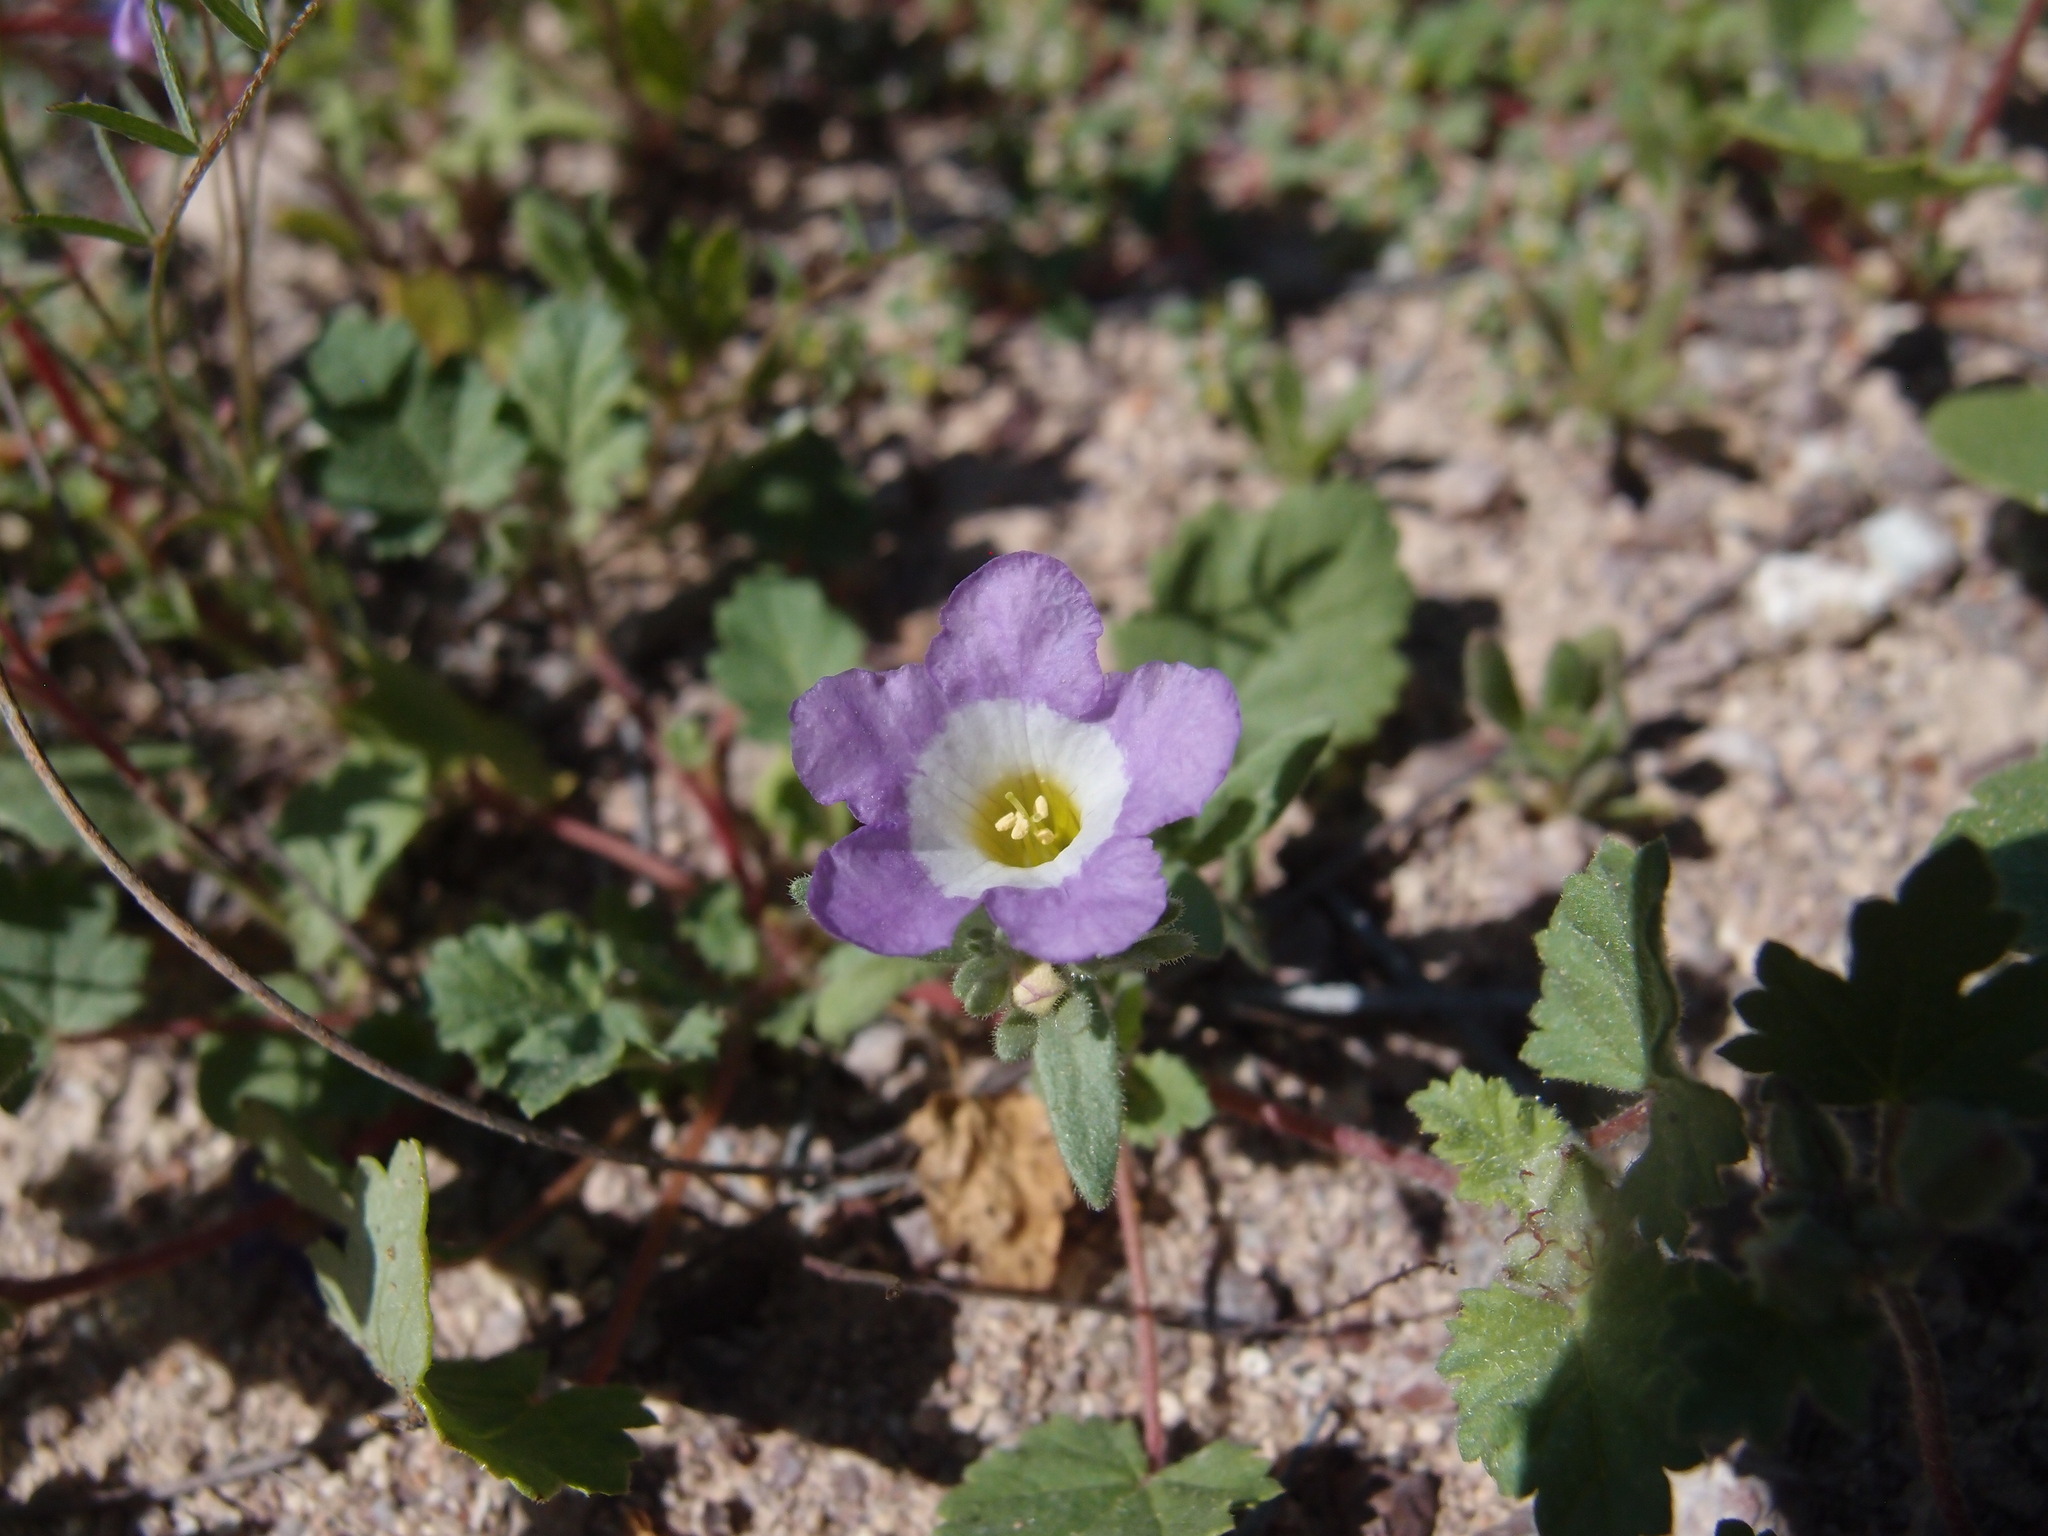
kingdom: Plantae
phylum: Tracheophyta
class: Magnoliopsida
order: Boraginales
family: Namaceae
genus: Nama
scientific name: Nama hispida
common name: Bristly nama
